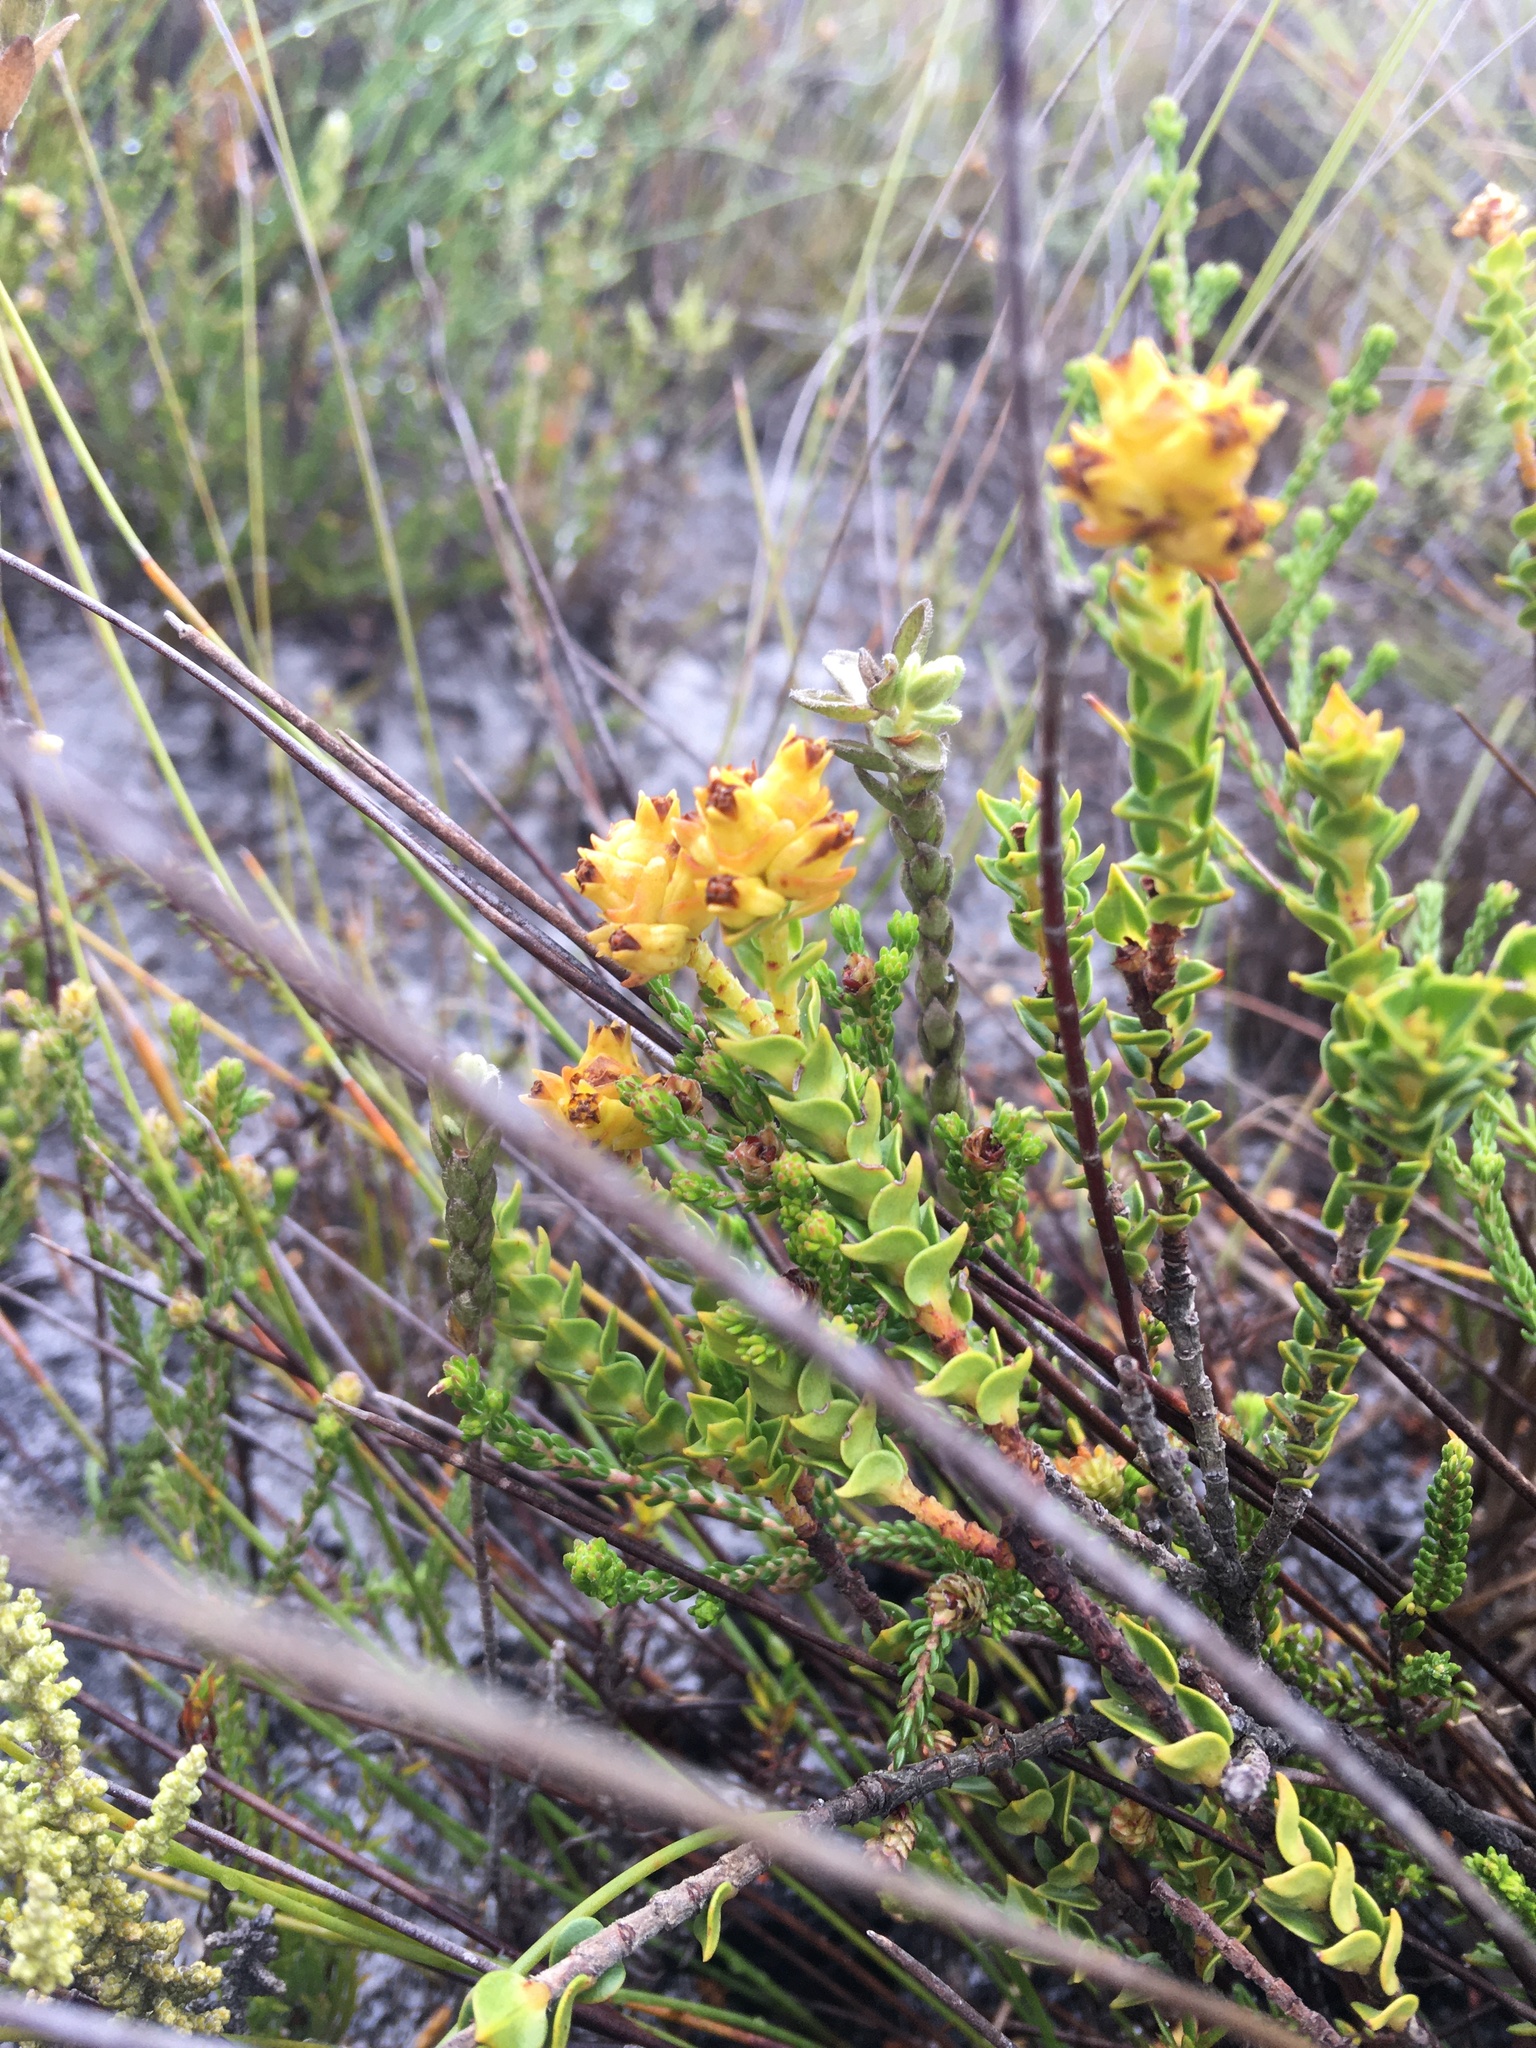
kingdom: Plantae
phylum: Tracheophyta
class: Magnoliopsida
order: Myrtales
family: Penaeaceae
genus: Penaea
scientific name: Penaea mucronata
